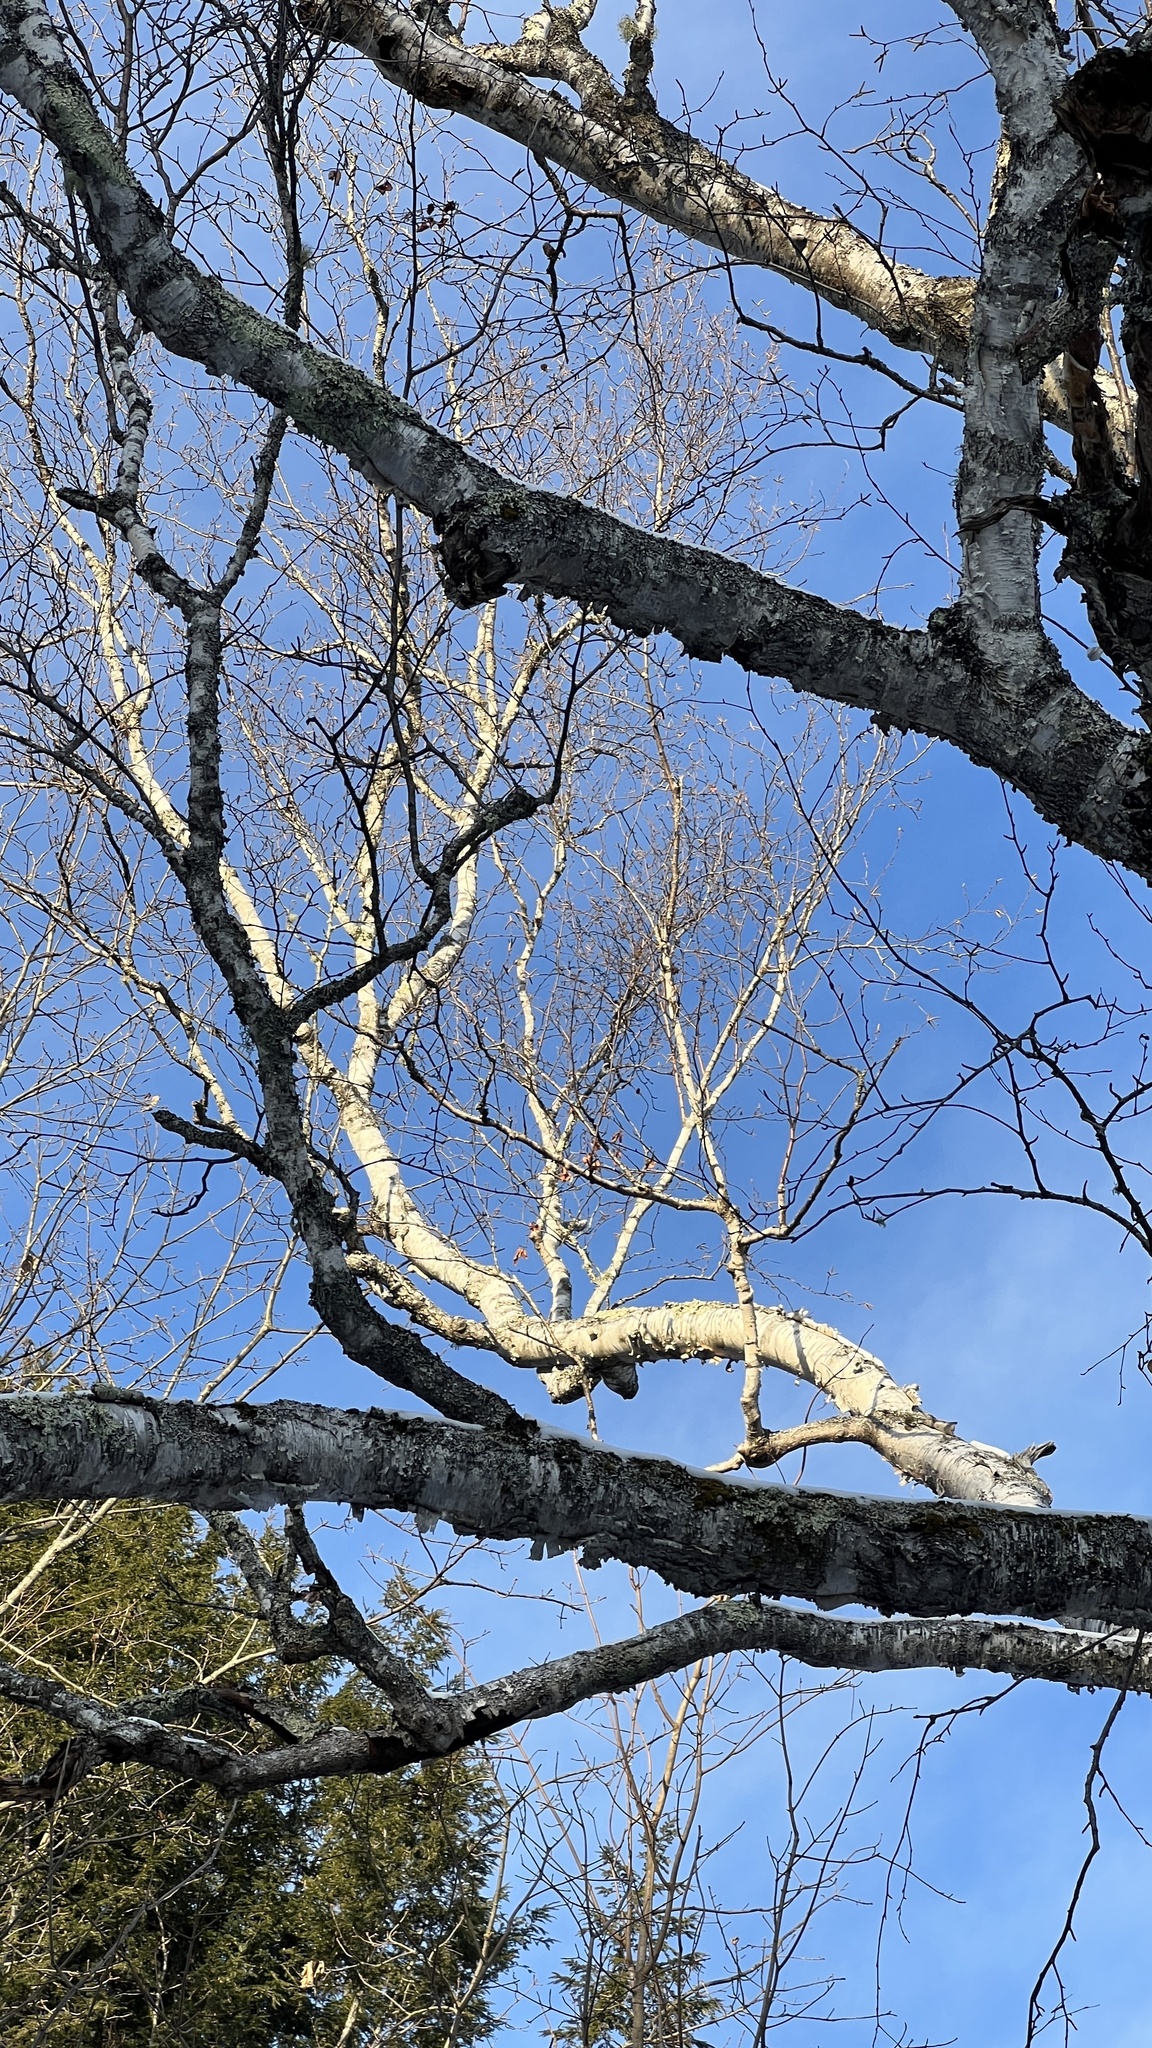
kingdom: Plantae
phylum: Tracheophyta
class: Magnoliopsida
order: Fagales
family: Betulaceae
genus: Betula
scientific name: Betula papyrifera
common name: Paper birch
